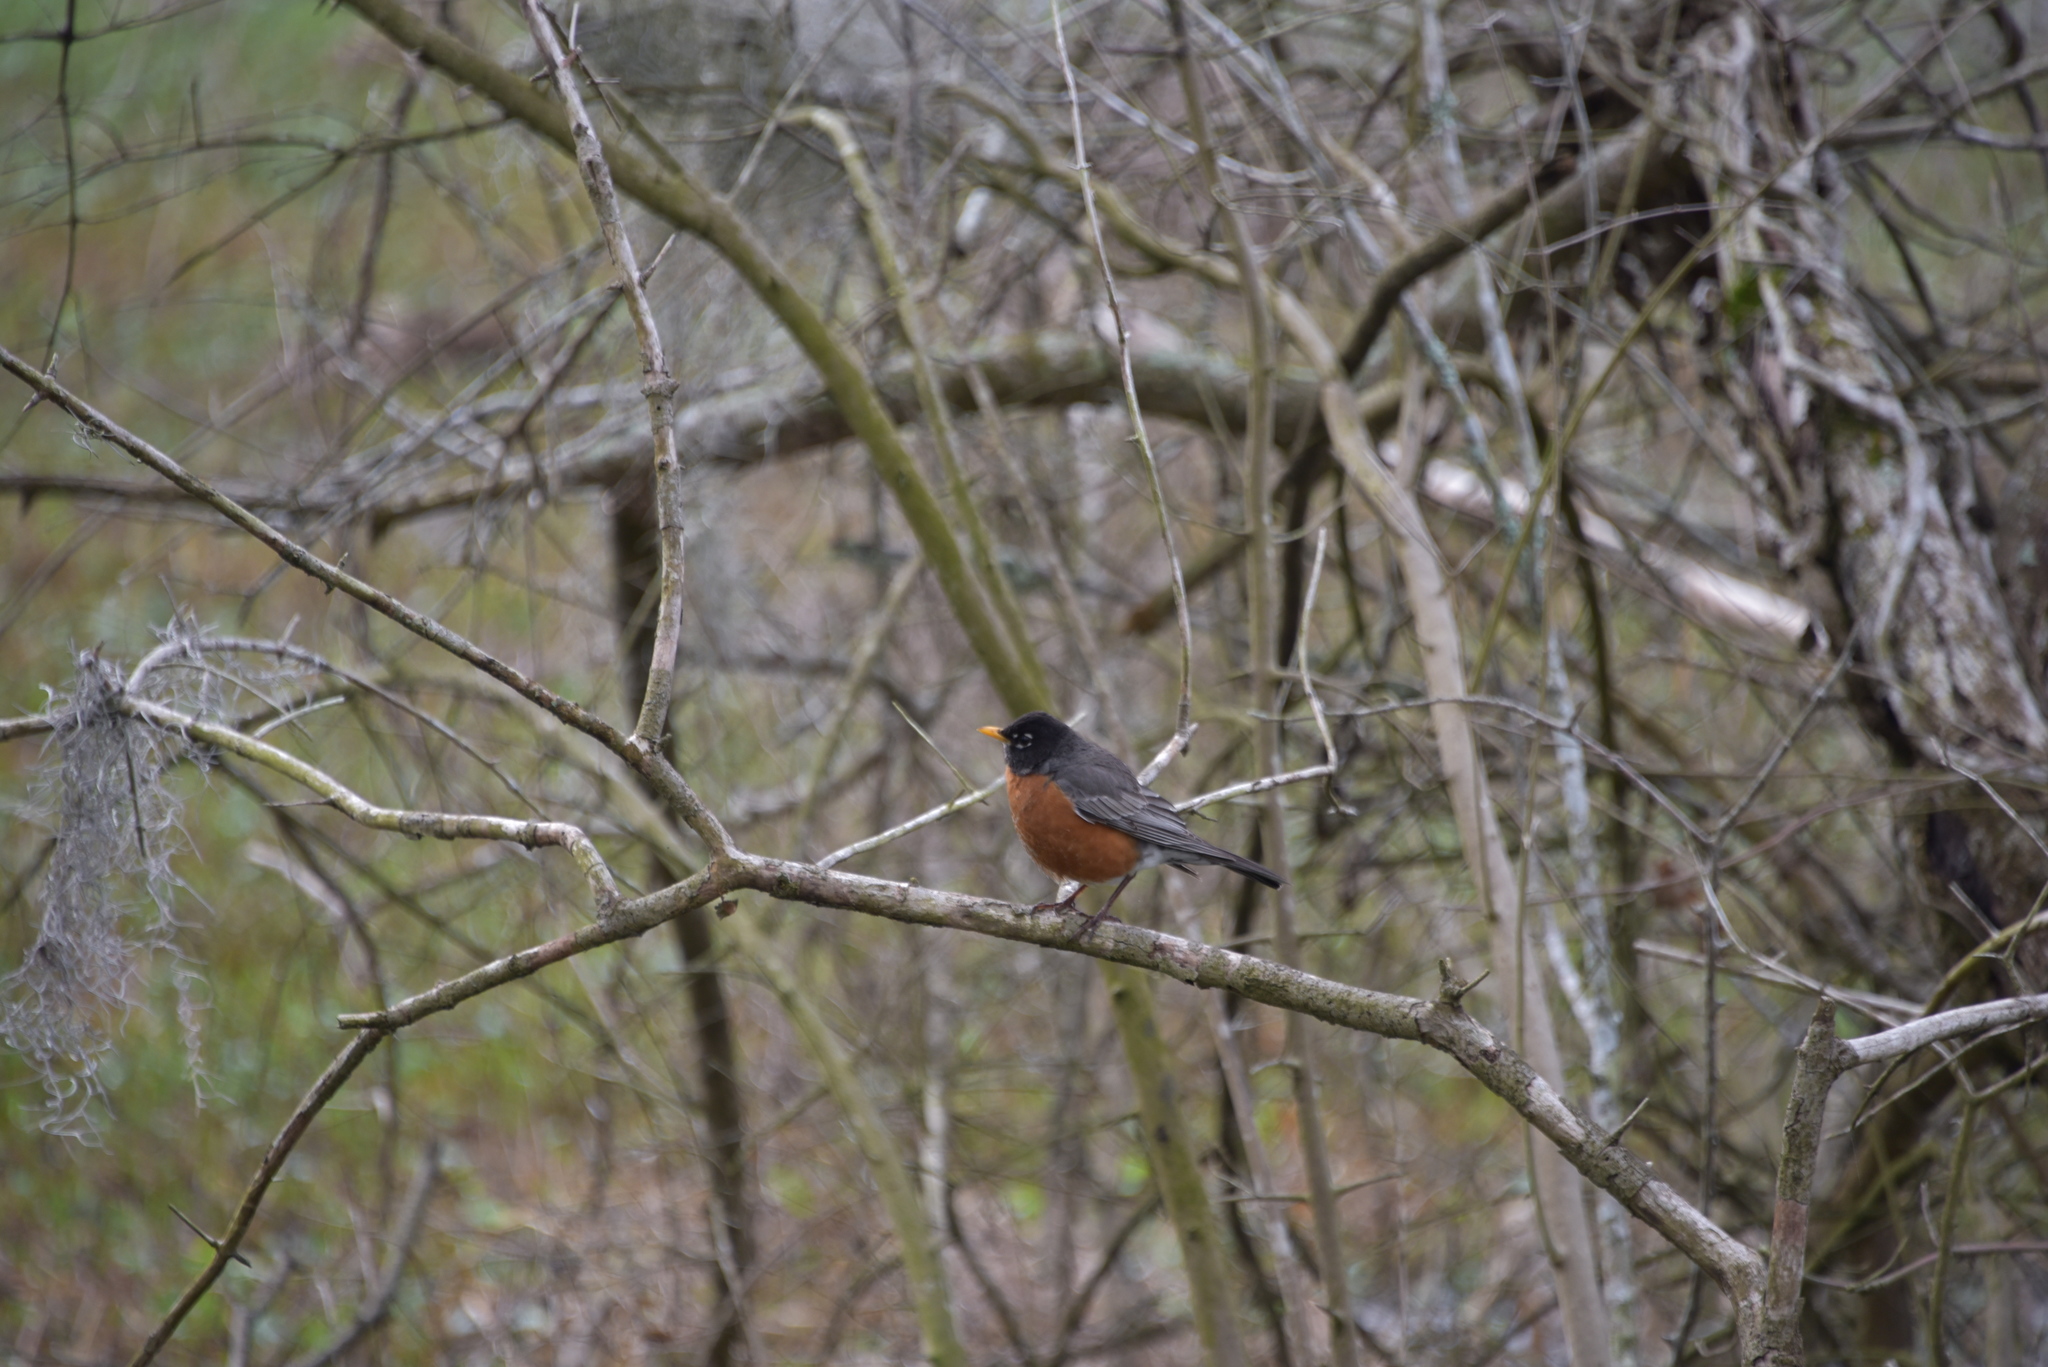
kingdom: Animalia
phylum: Chordata
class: Aves
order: Passeriformes
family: Turdidae
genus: Turdus
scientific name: Turdus migratorius
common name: American robin
